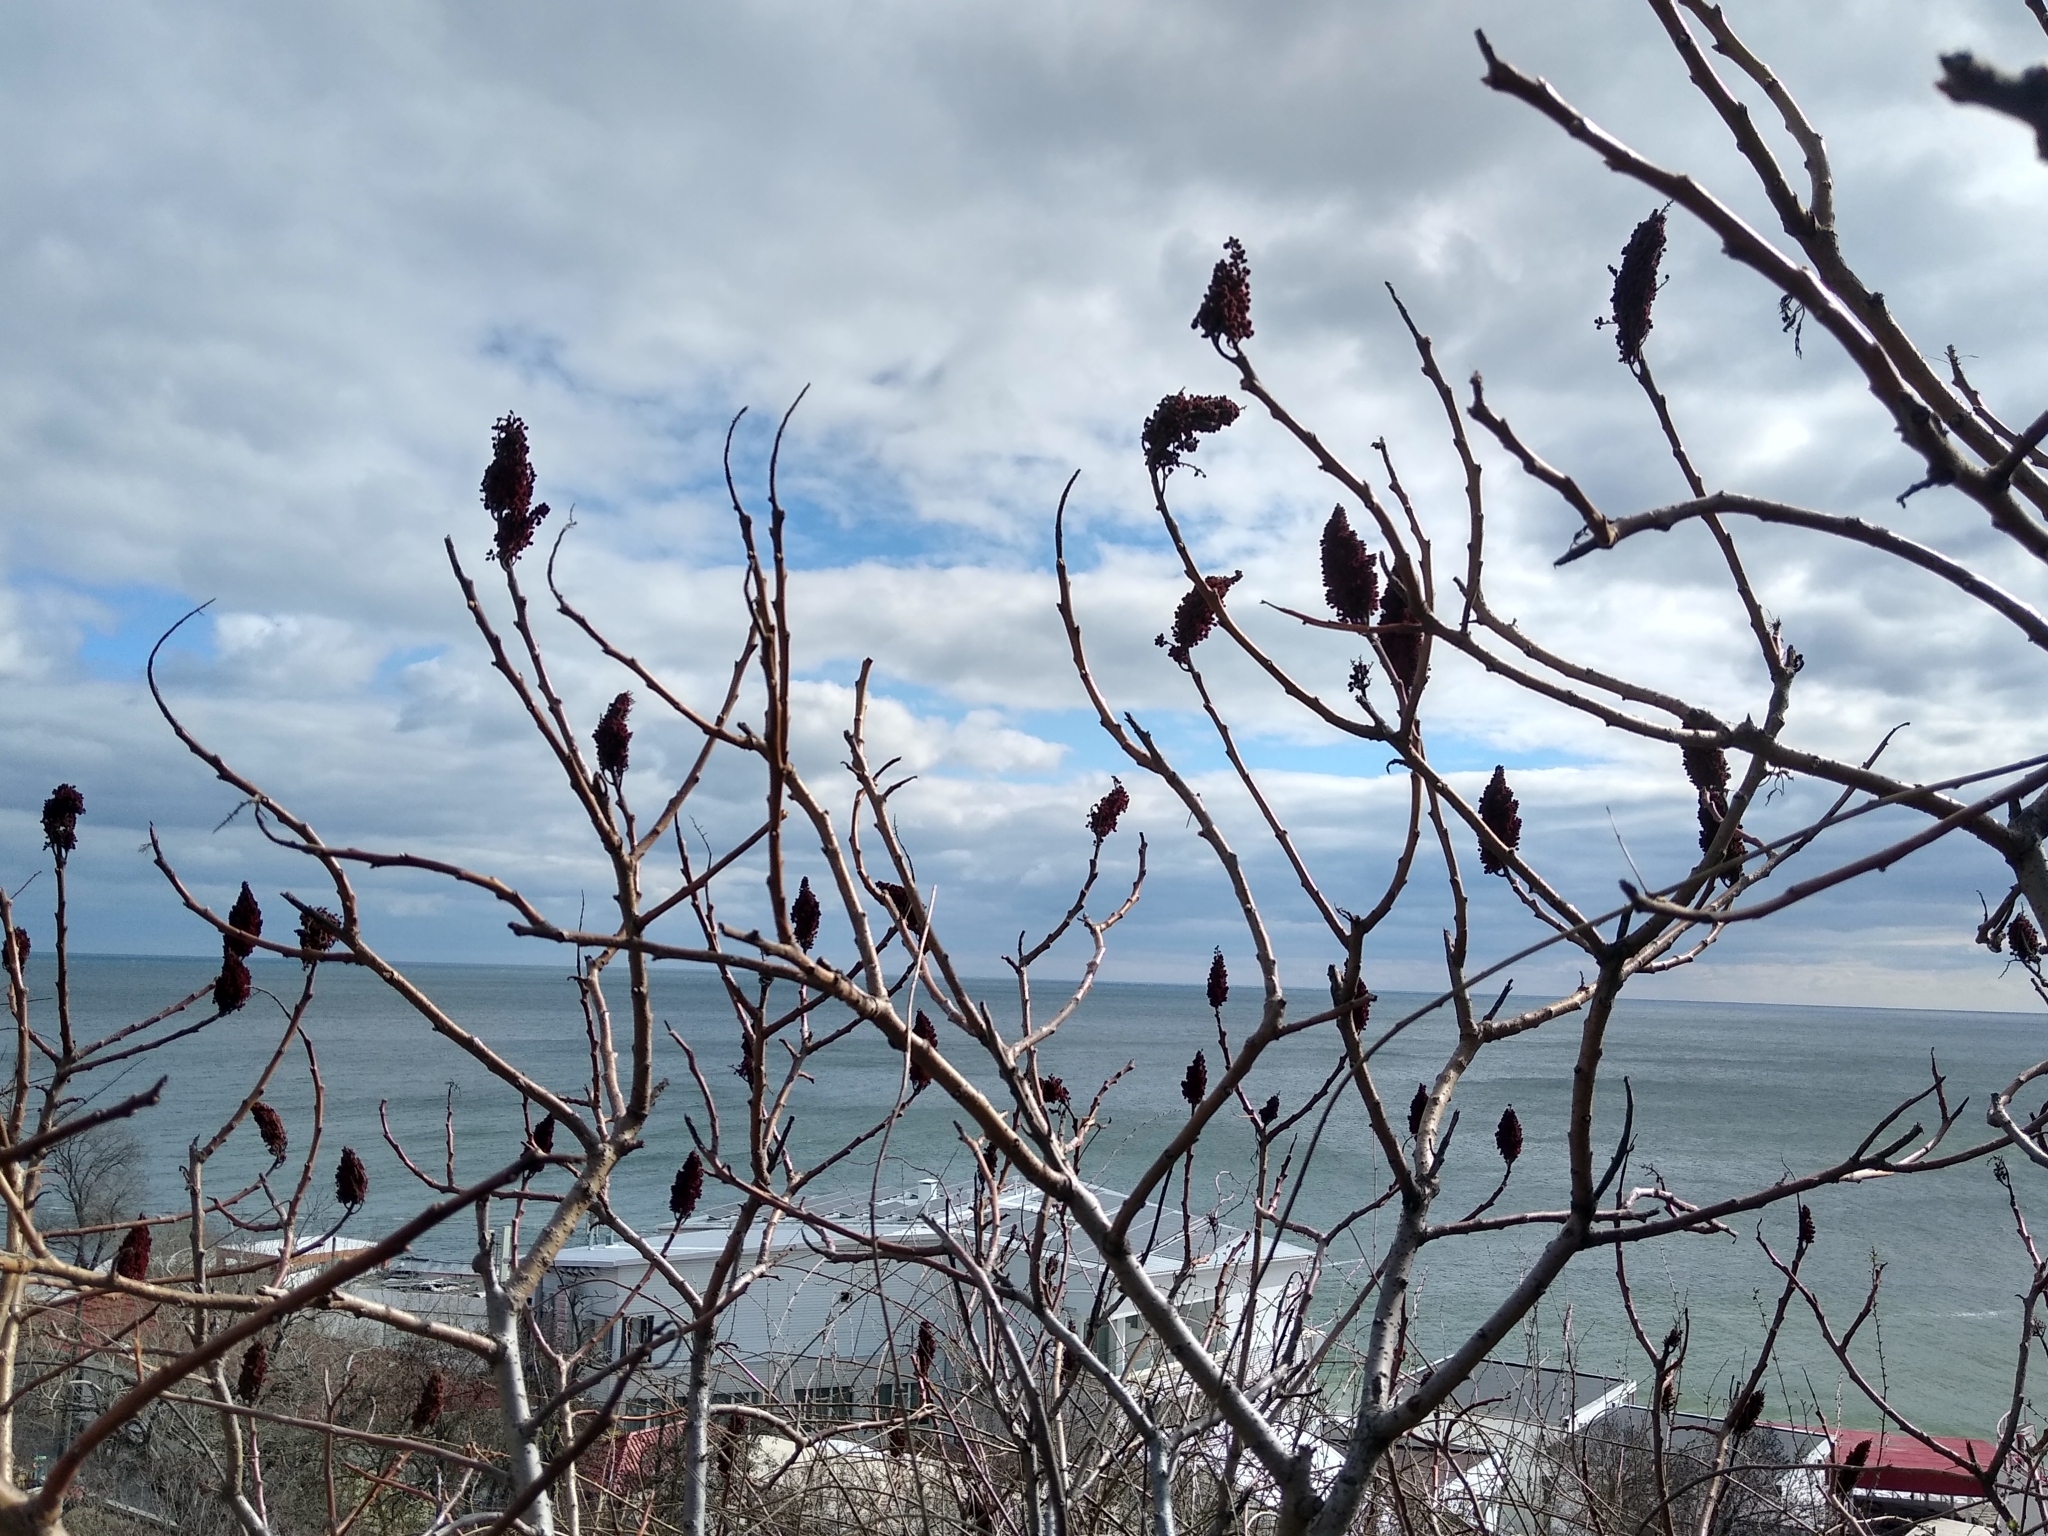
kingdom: Plantae
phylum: Tracheophyta
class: Magnoliopsida
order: Sapindales
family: Anacardiaceae
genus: Rhus
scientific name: Rhus typhina
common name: Staghorn sumac
